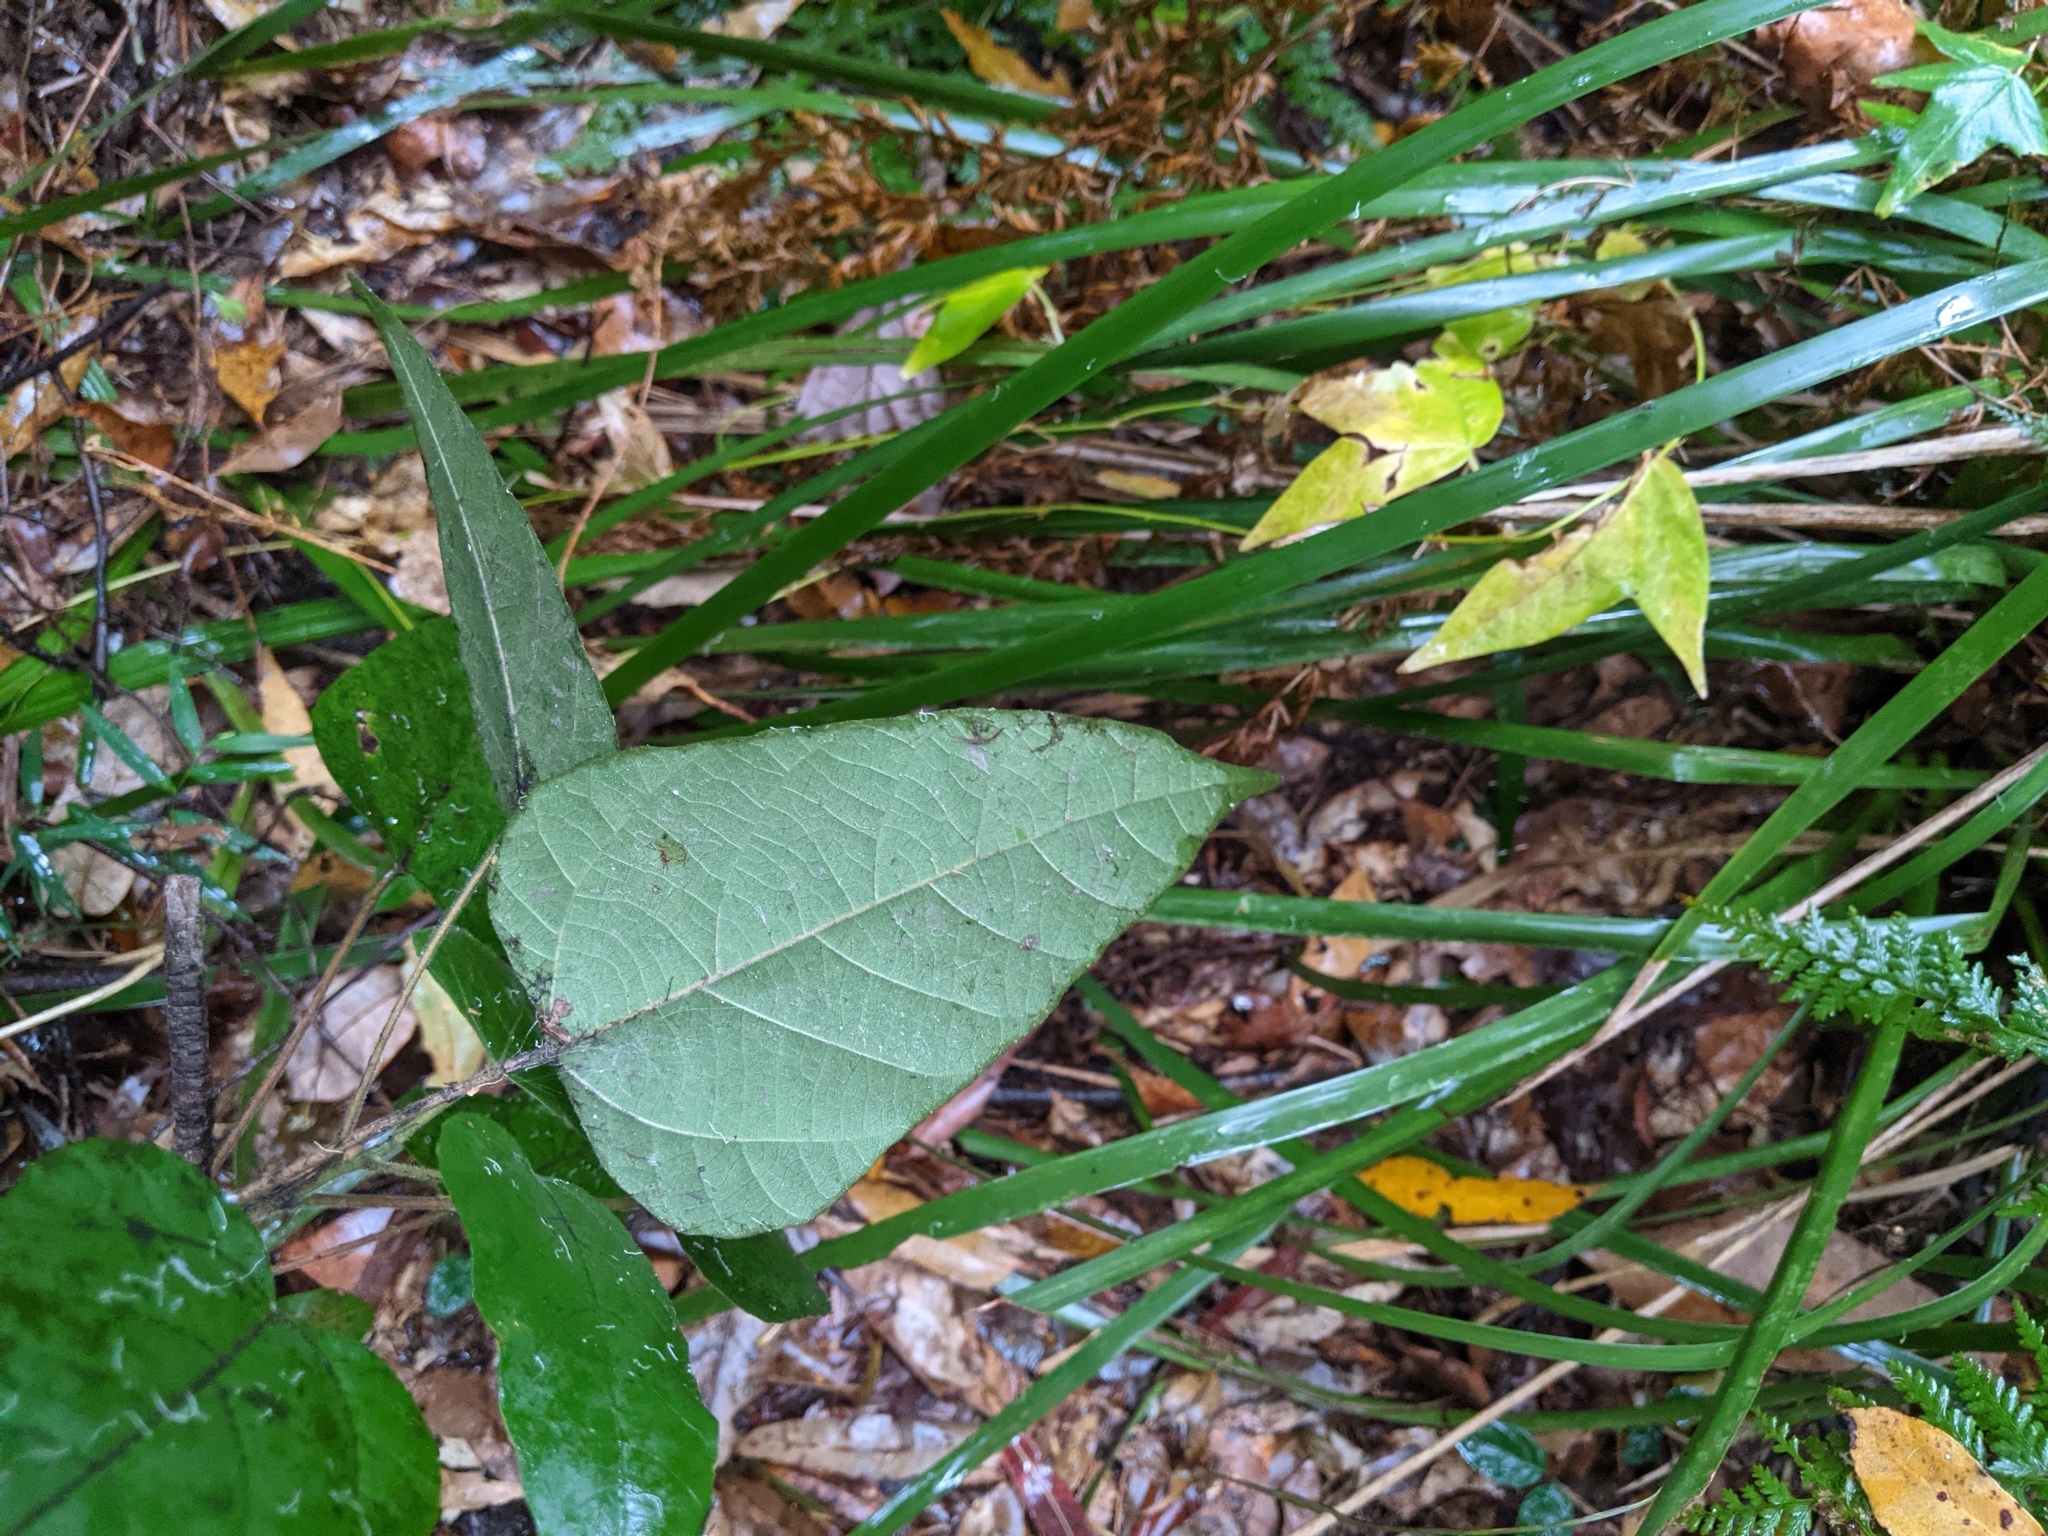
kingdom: Plantae
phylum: Tracheophyta
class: Magnoliopsida
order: Malpighiales
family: Euphorbiaceae
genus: Mallotus
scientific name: Mallotus discolor
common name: White kamala
